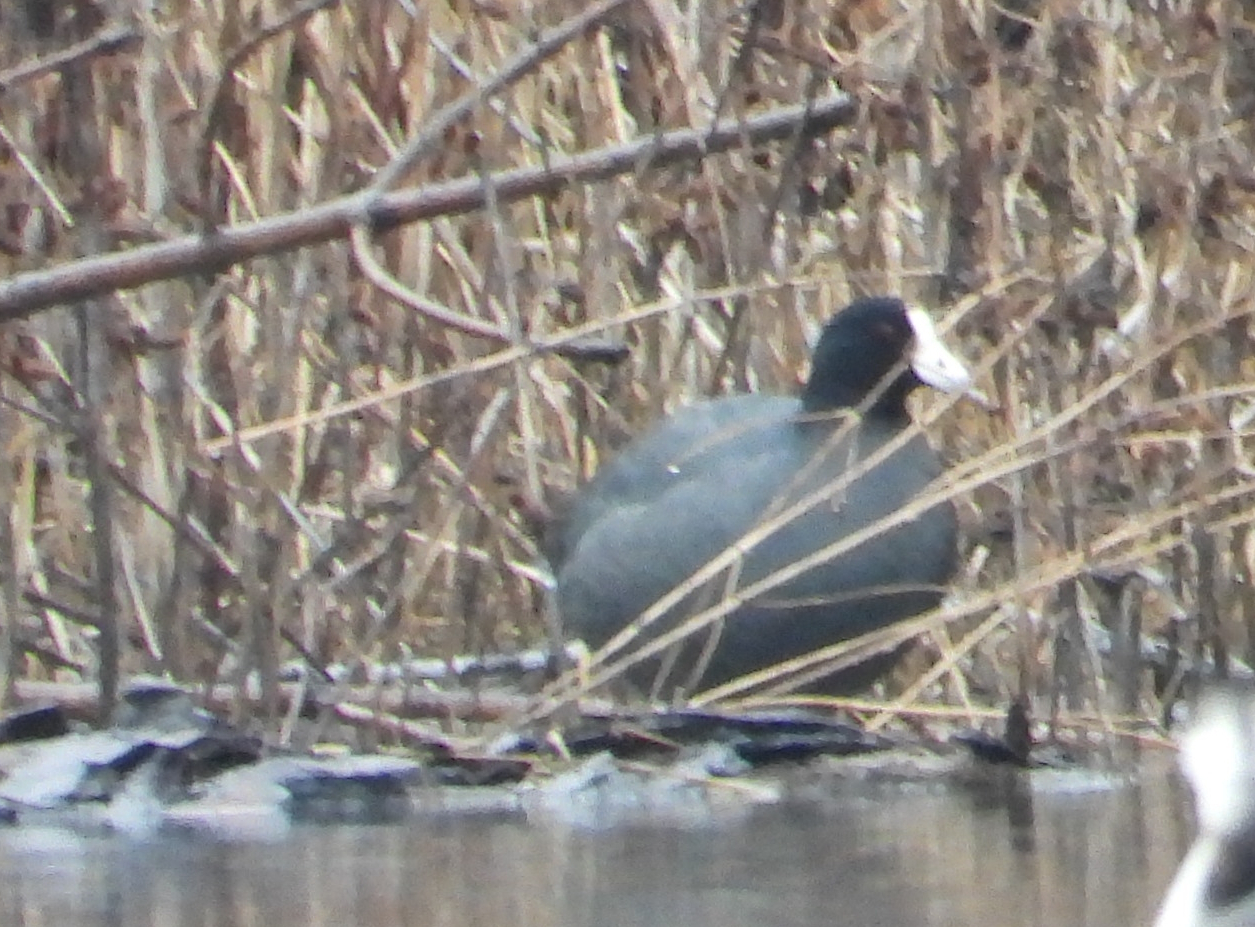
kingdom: Animalia
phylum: Chordata
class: Aves
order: Gruiformes
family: Rallidae
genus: Fulica
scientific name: Fulica americana
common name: American coot
